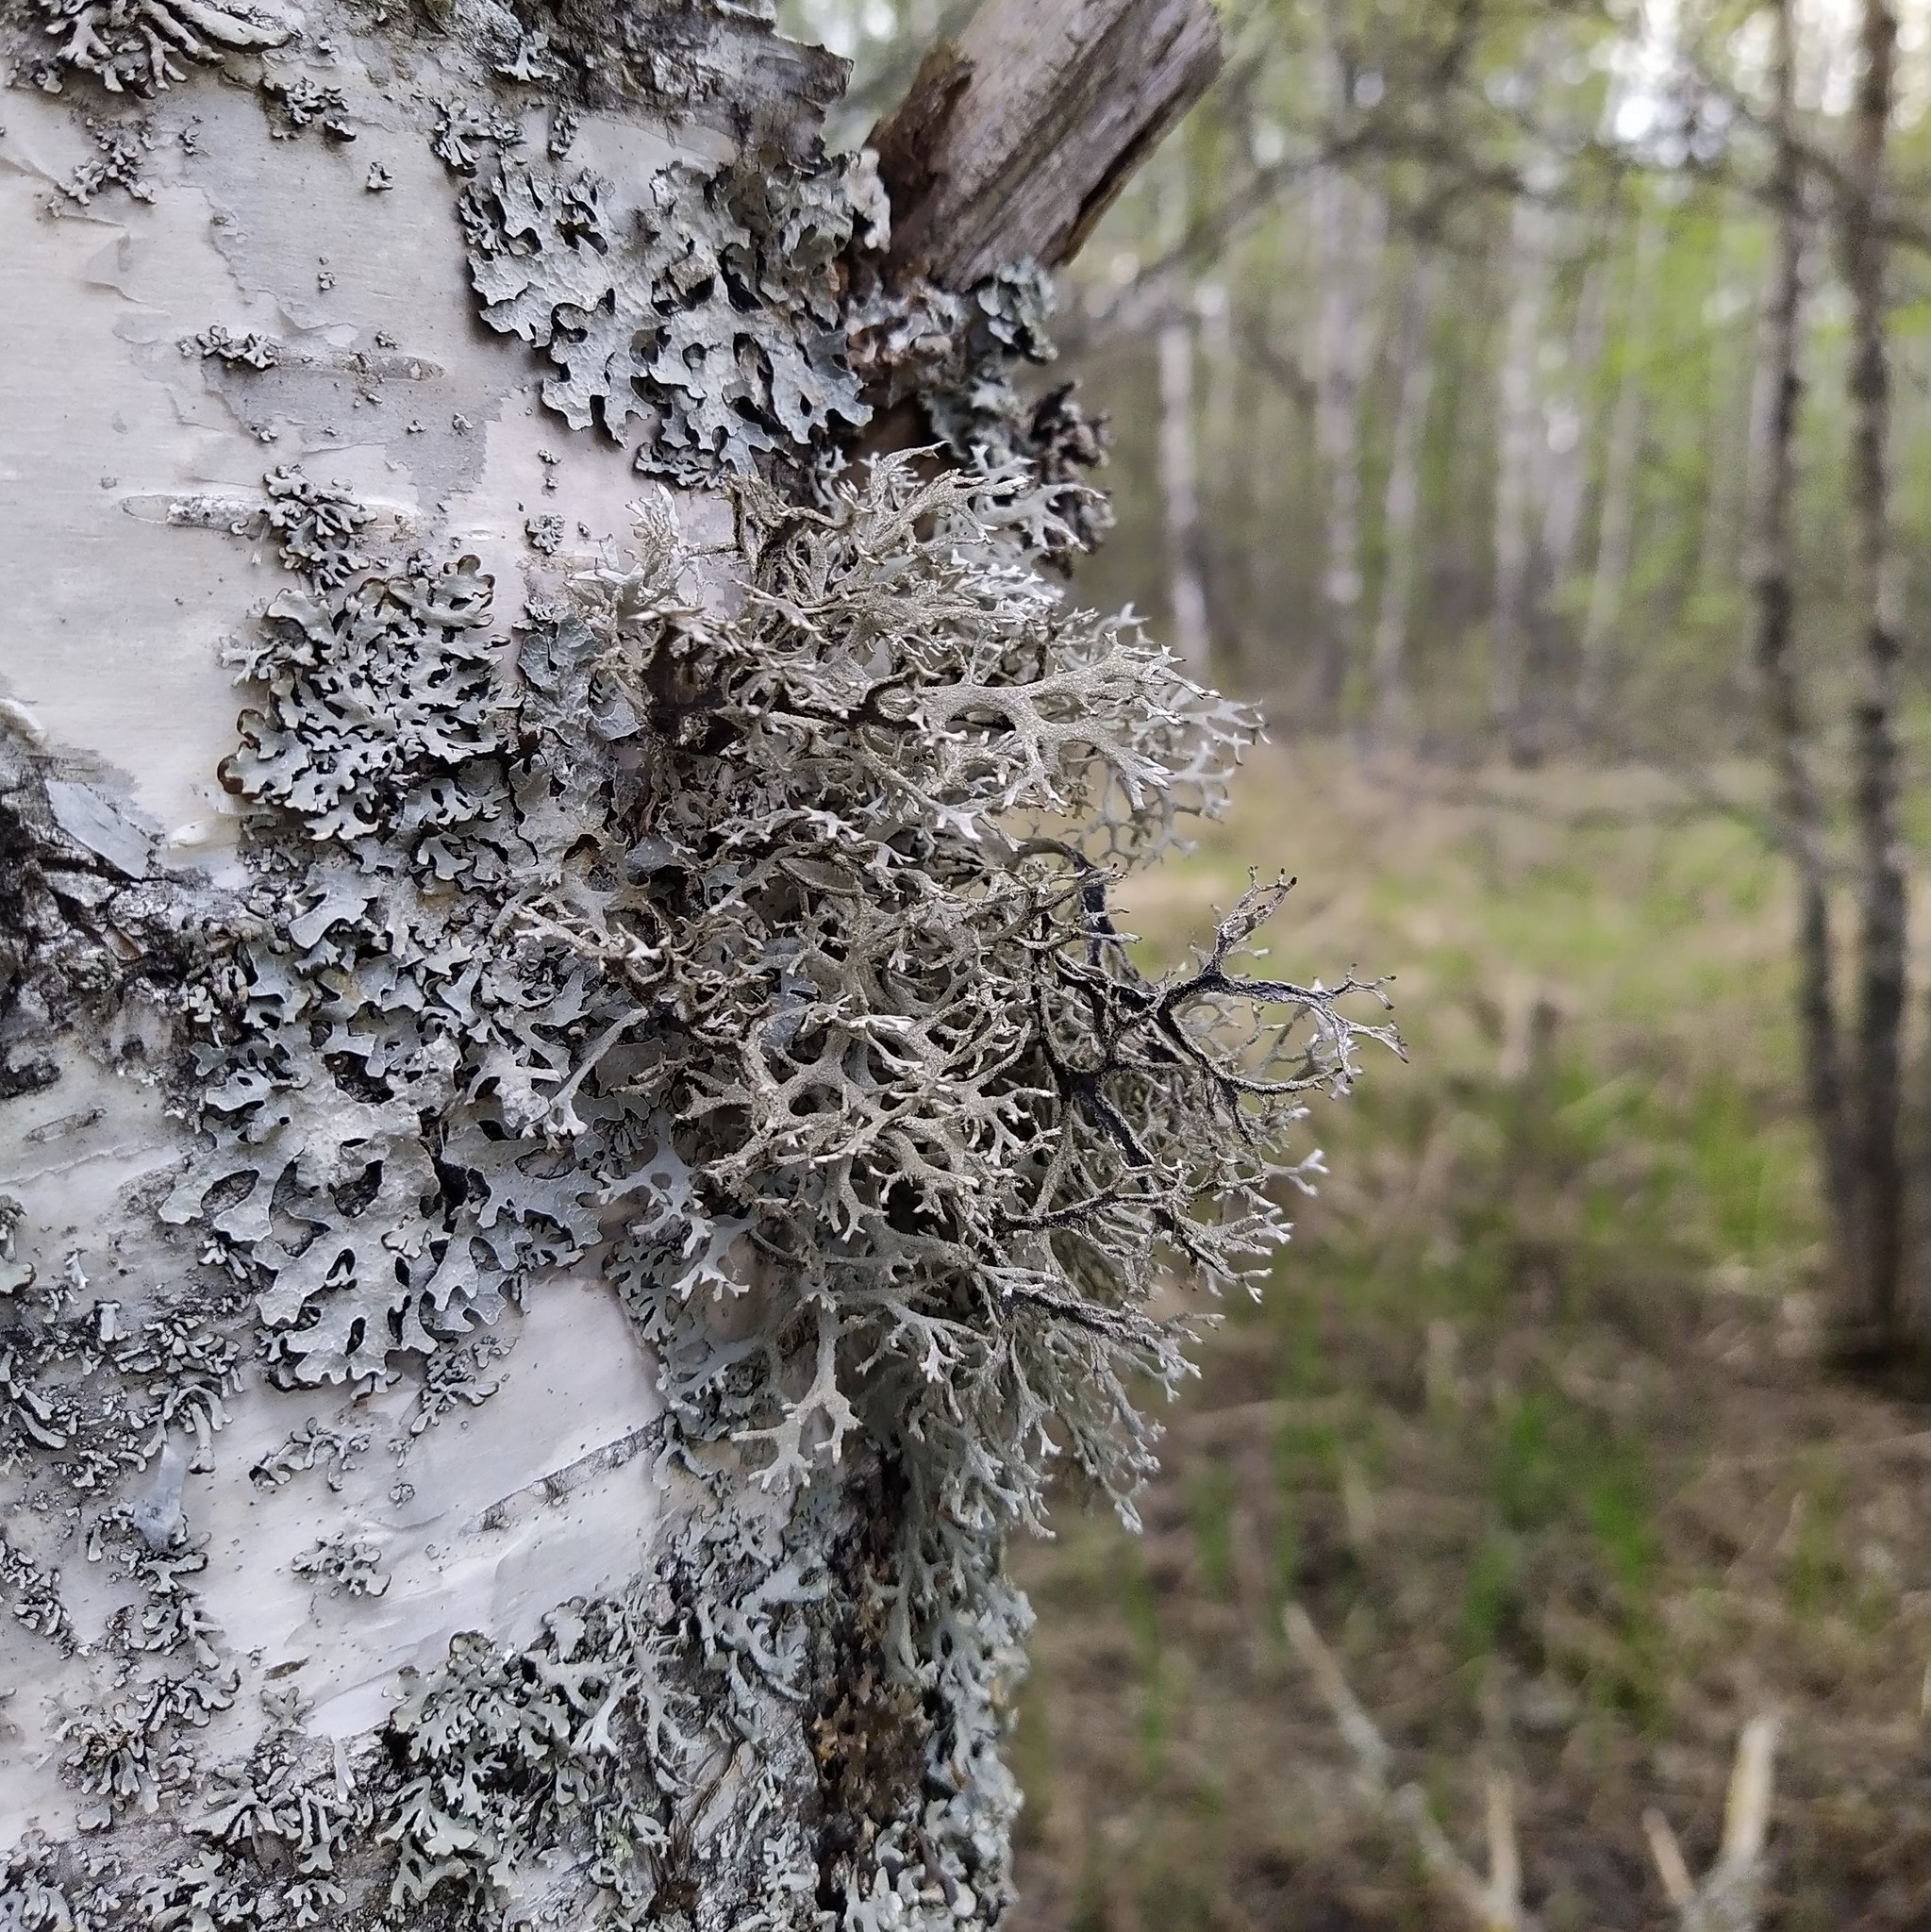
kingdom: Fungi
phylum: Ascomycota
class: Lecanoromycetes
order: Lecanorales
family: Parmeliaceae
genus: Pseudevernia
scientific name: Pseudevernia furfuracea
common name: Tree moss
